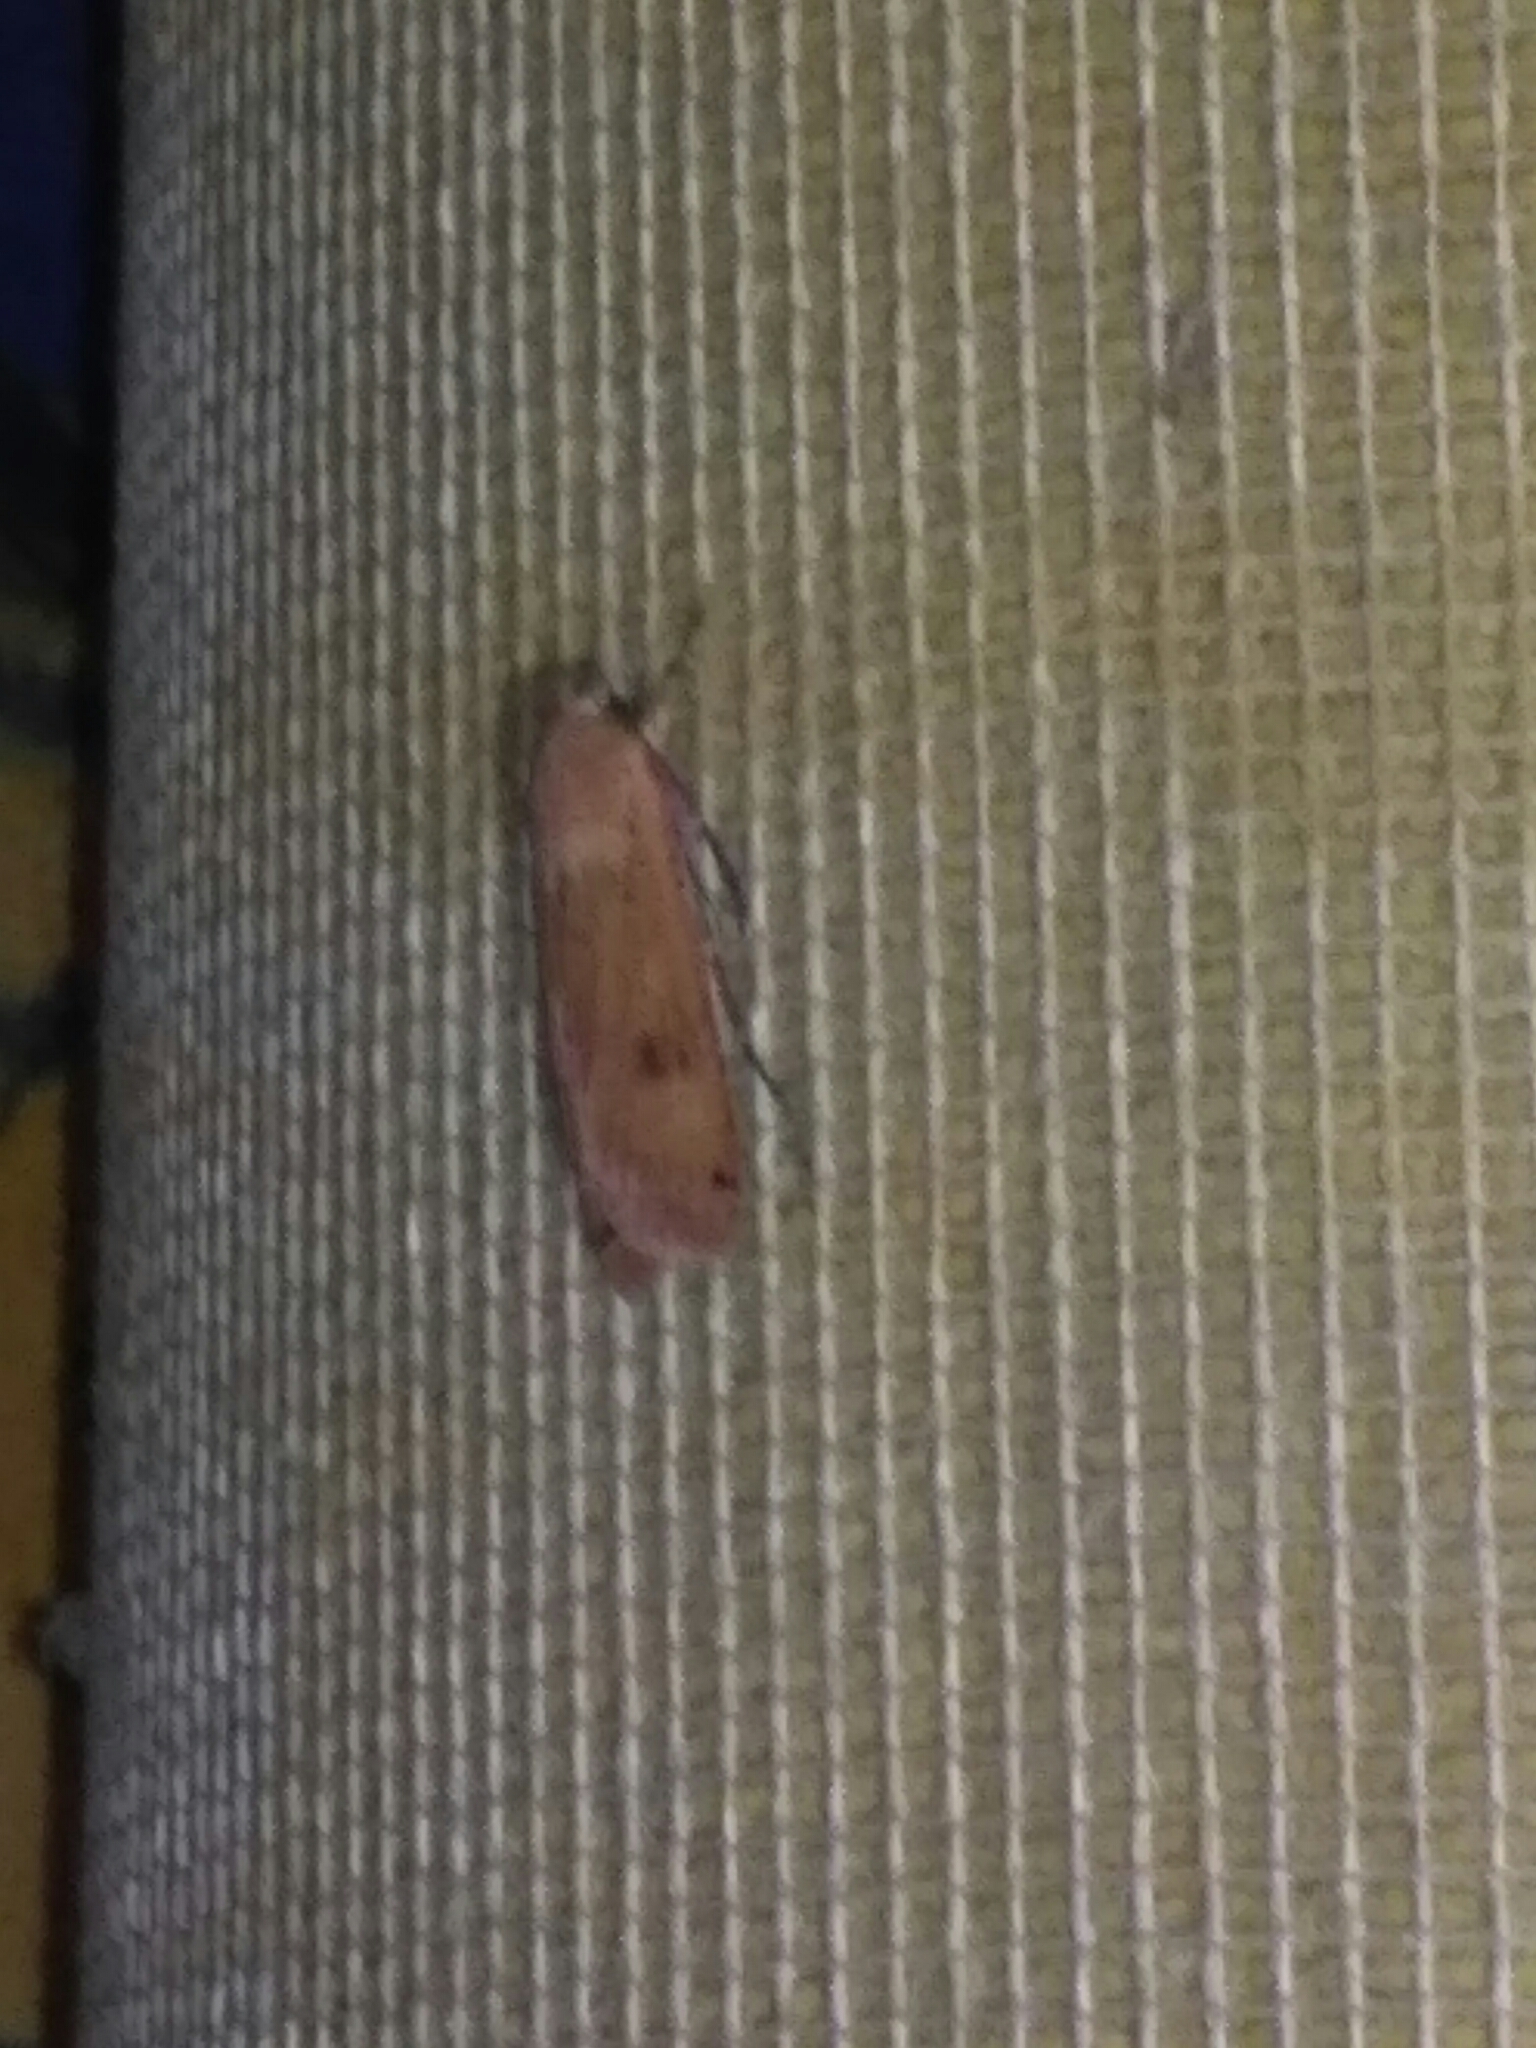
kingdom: Animalia
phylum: Arthropoda
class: Insecta
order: Lepidoptera
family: Noctuidae
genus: Noctua
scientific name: Noctua pronuba
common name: Large yellow underwing
